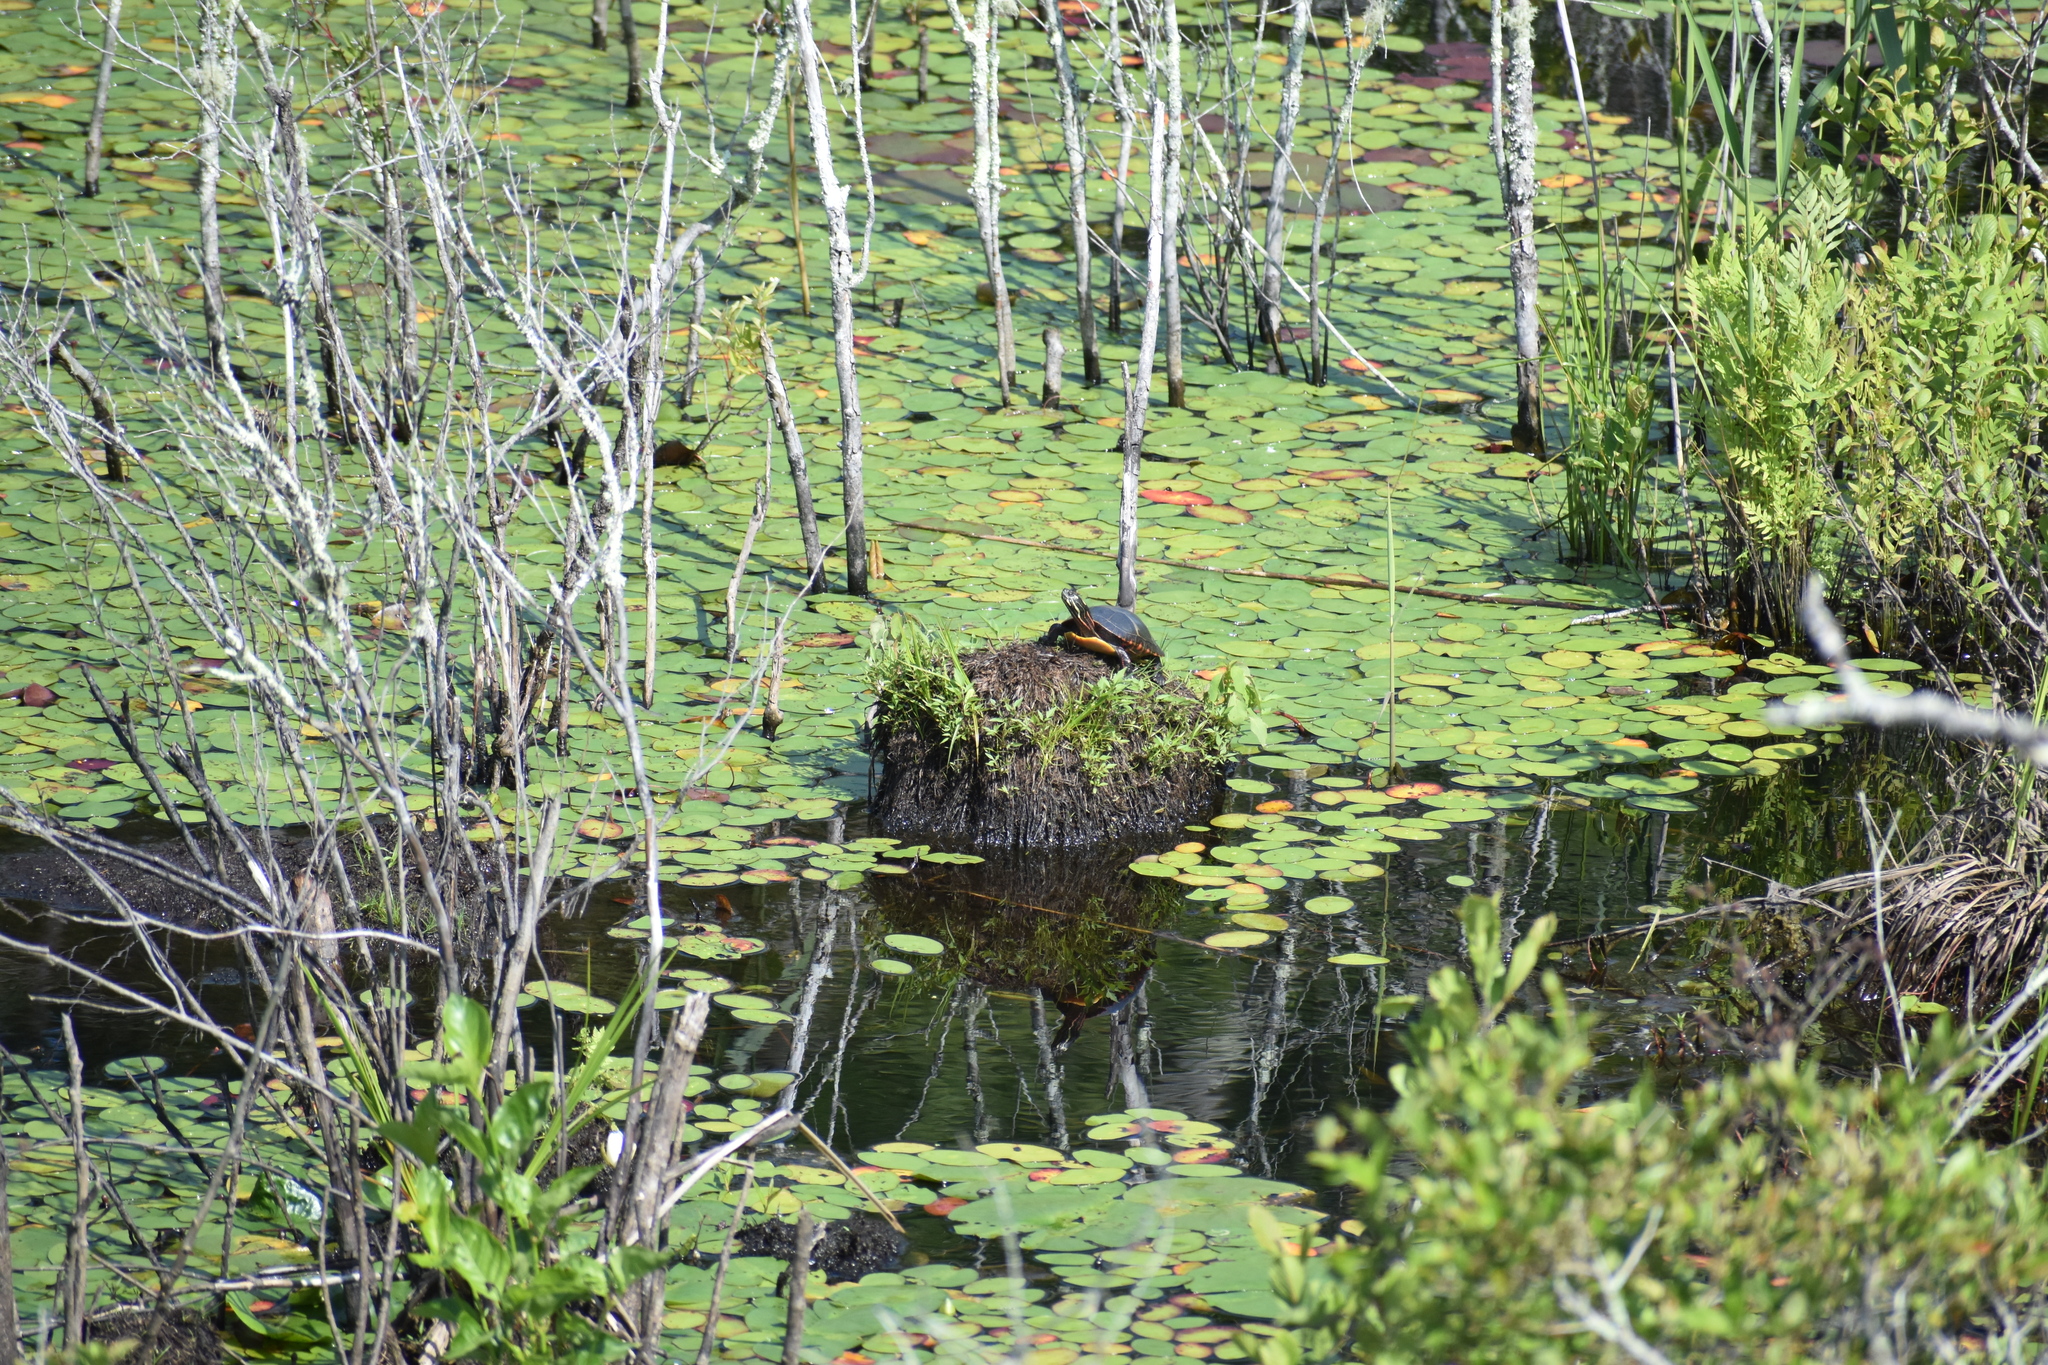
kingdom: Animalia
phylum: Chordata
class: Testudines
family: Emydidae
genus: Chrysemys
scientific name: Chrysemys picta
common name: Painted turtle
